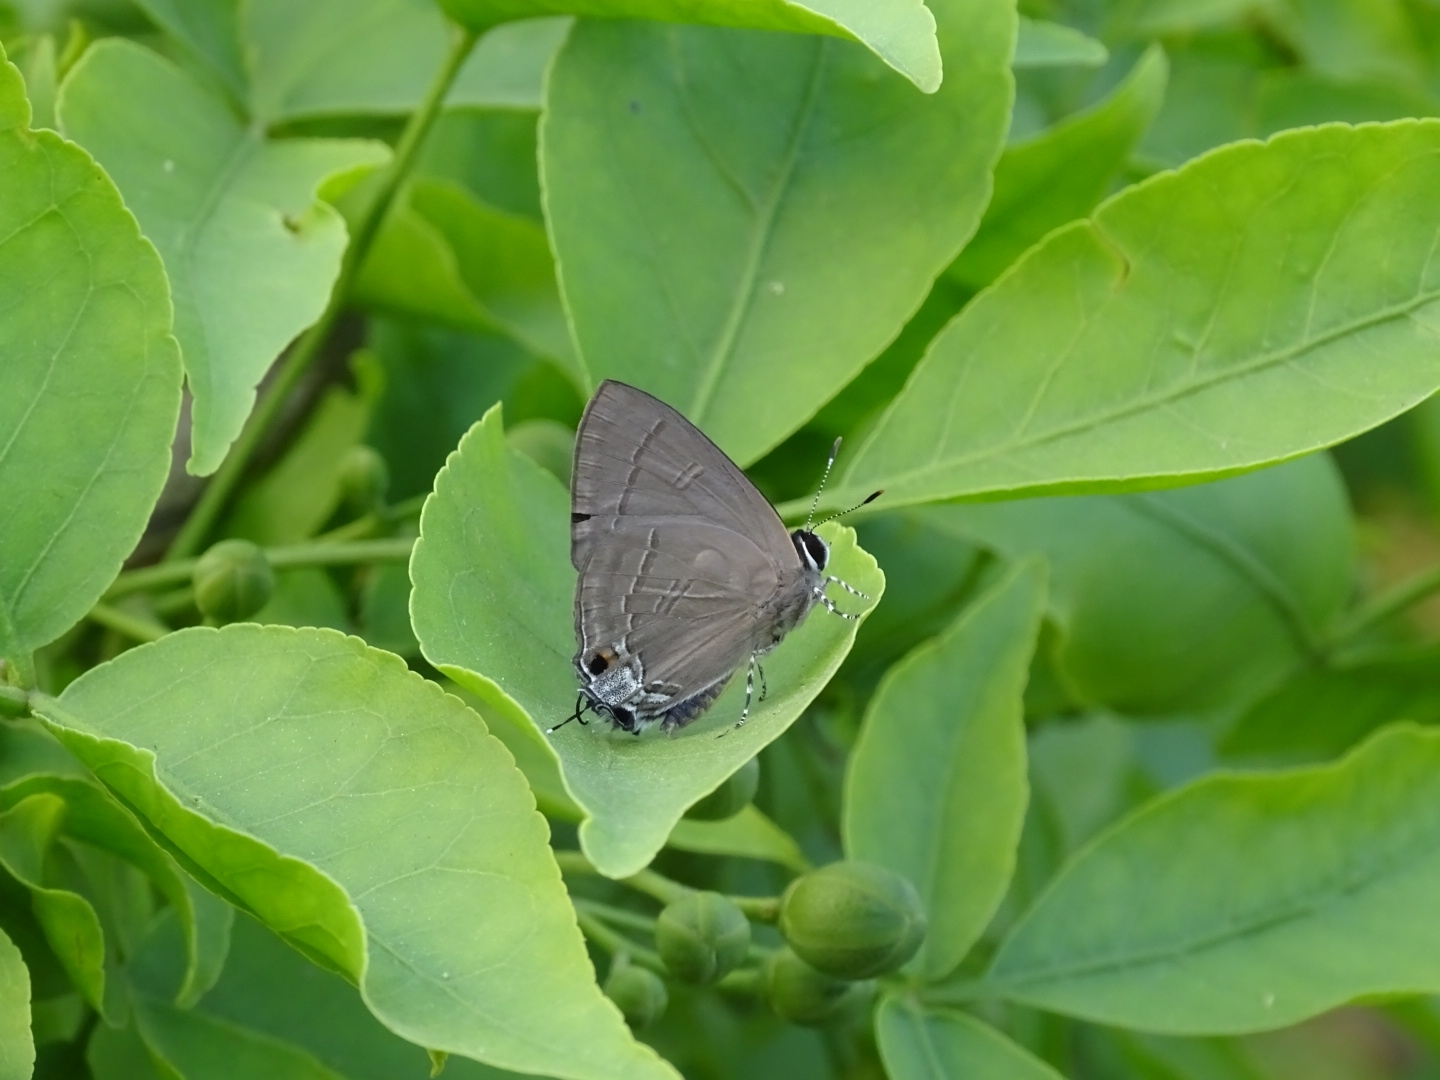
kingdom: Animalia
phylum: Arthropoda
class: Insecta
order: Lepidoptera
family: Lycaenidae
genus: Rapala
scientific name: Rapala manea
